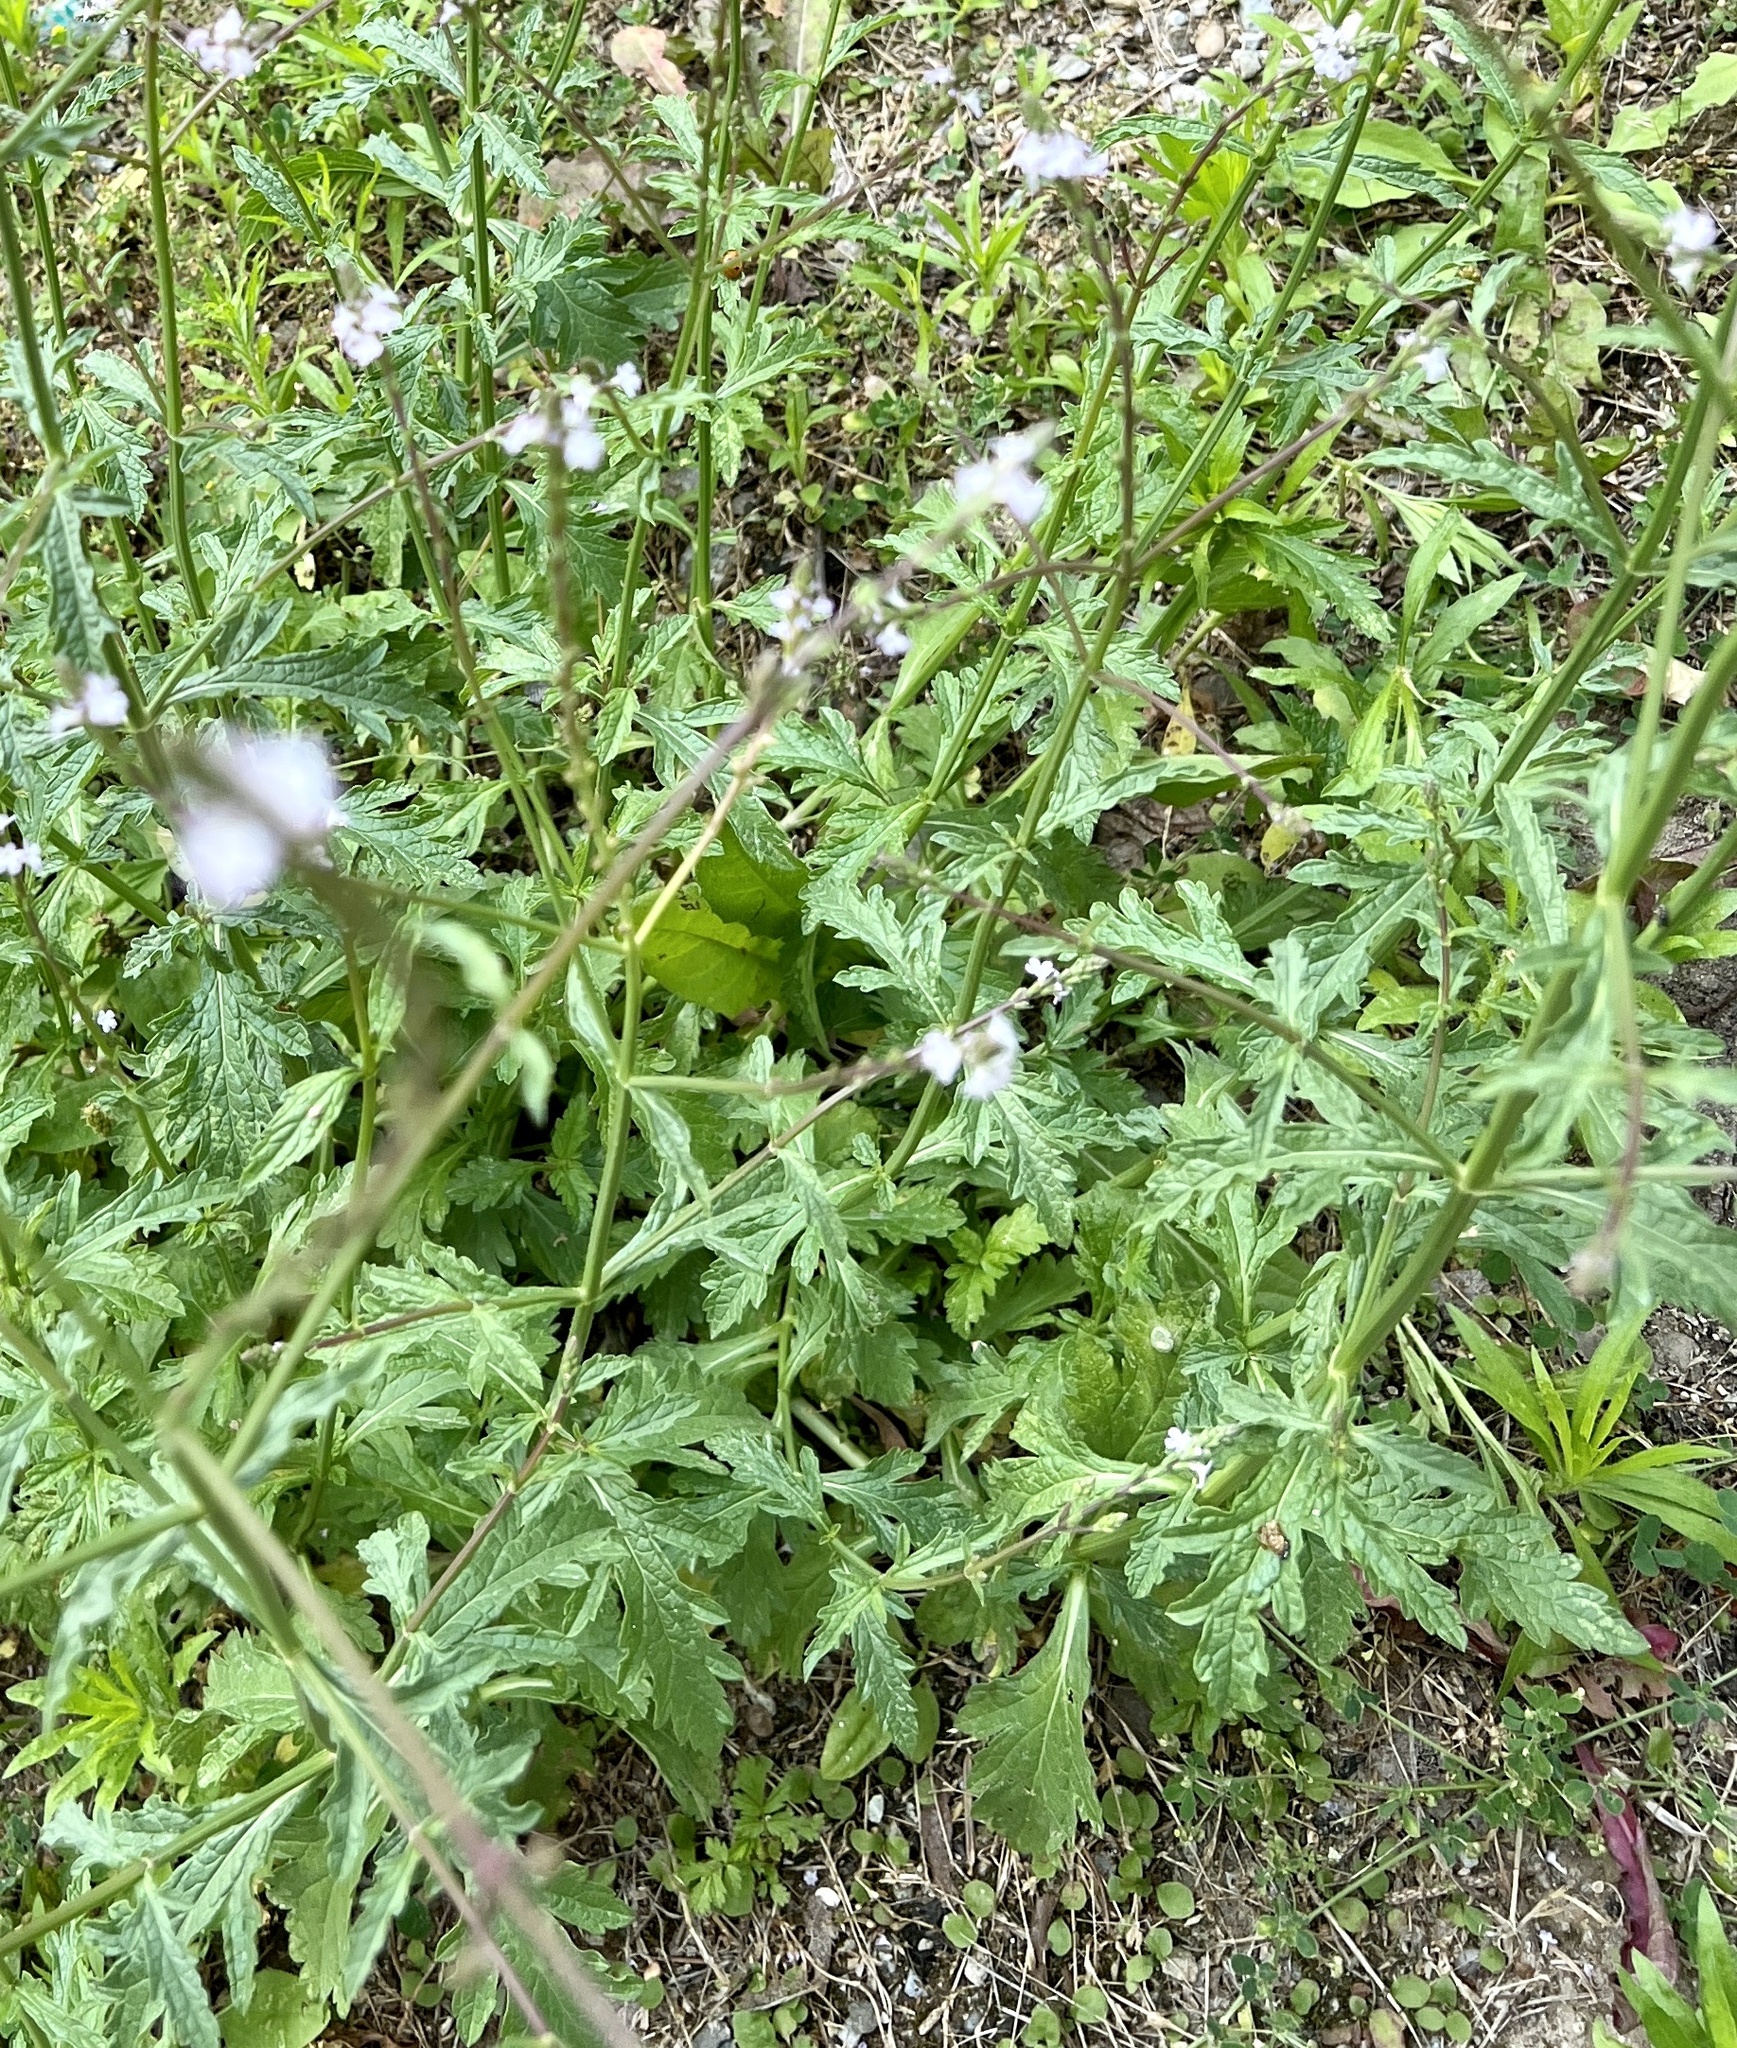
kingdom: Plantae
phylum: Tracheophyta
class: Magnoliopsida
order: Lamiales
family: Verbenaceae
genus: Verbena
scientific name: Verbena officinalis
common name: Vervain
